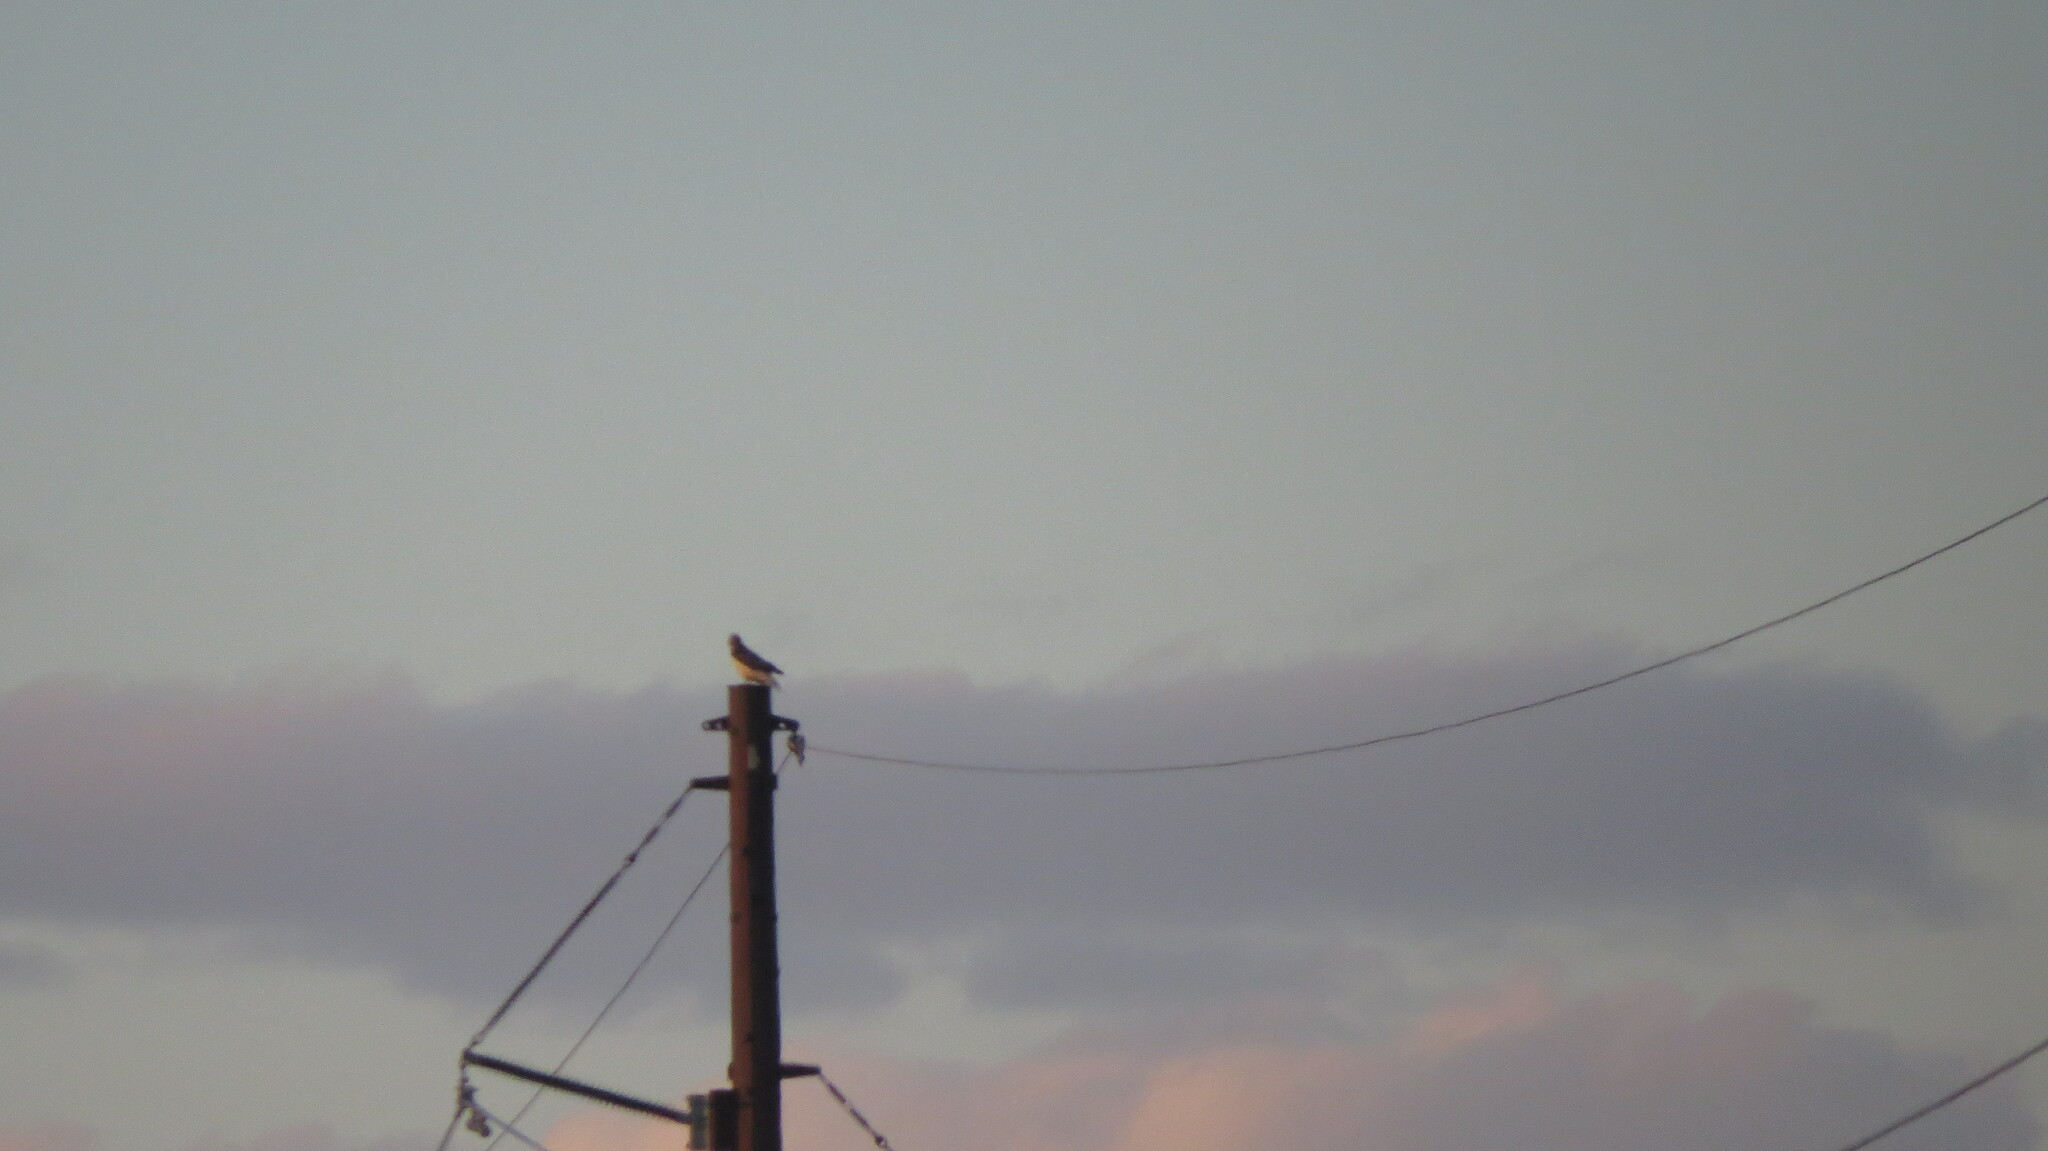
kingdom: Animalia
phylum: Chordata
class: Aves
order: Accipitriformes
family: Accipitridae
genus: Buteo
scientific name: Buteo jamaicensis
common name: Red-tailed hawk
